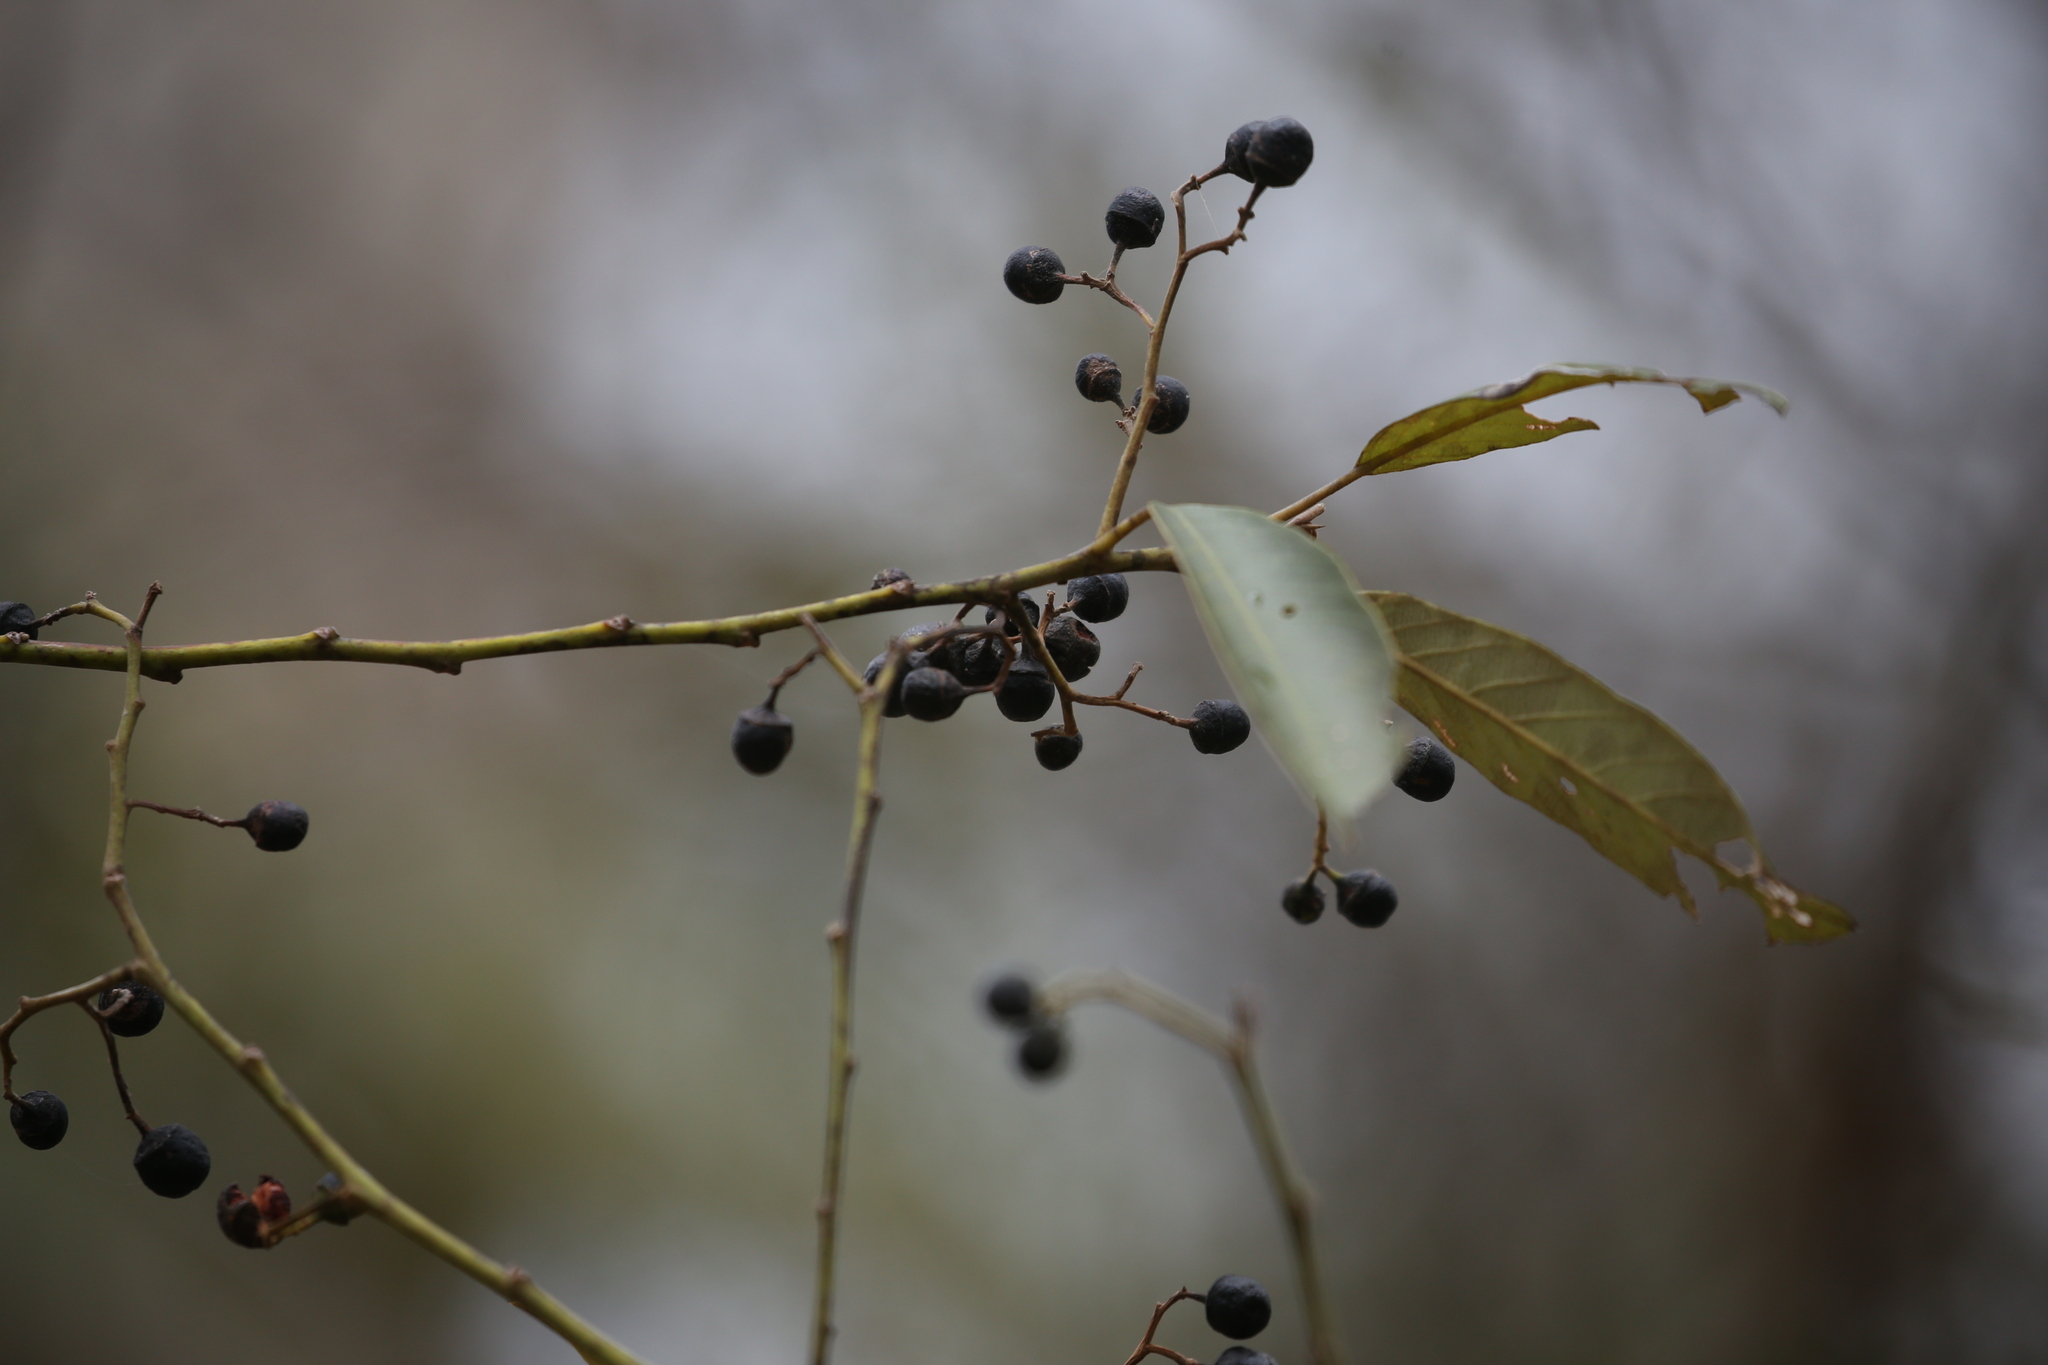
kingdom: Plantae
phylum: Tracheophyta
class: Magnoliopsida
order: Rosales
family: Rhamnaceae
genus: Alphitonia
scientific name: Alphitonia excelsa
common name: Red ash
